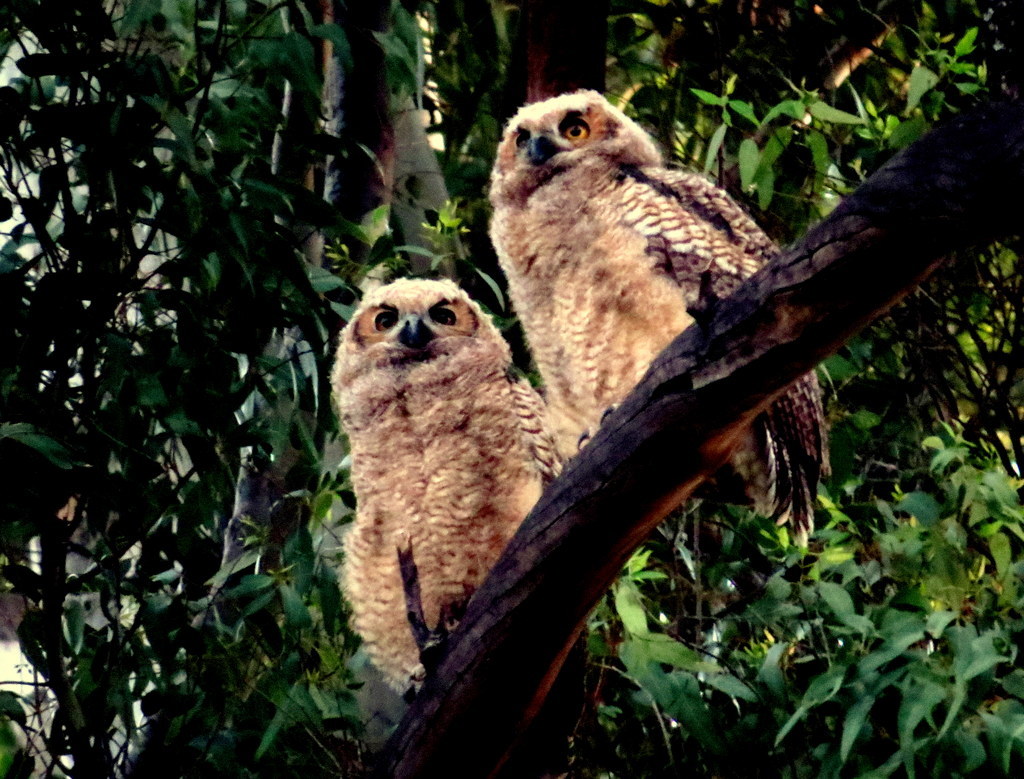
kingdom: Animalia
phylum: Chordata
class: Aves
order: Strigiformes
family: Strigidae
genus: Bubo
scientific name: Bubo virginianus
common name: Great horned owl
